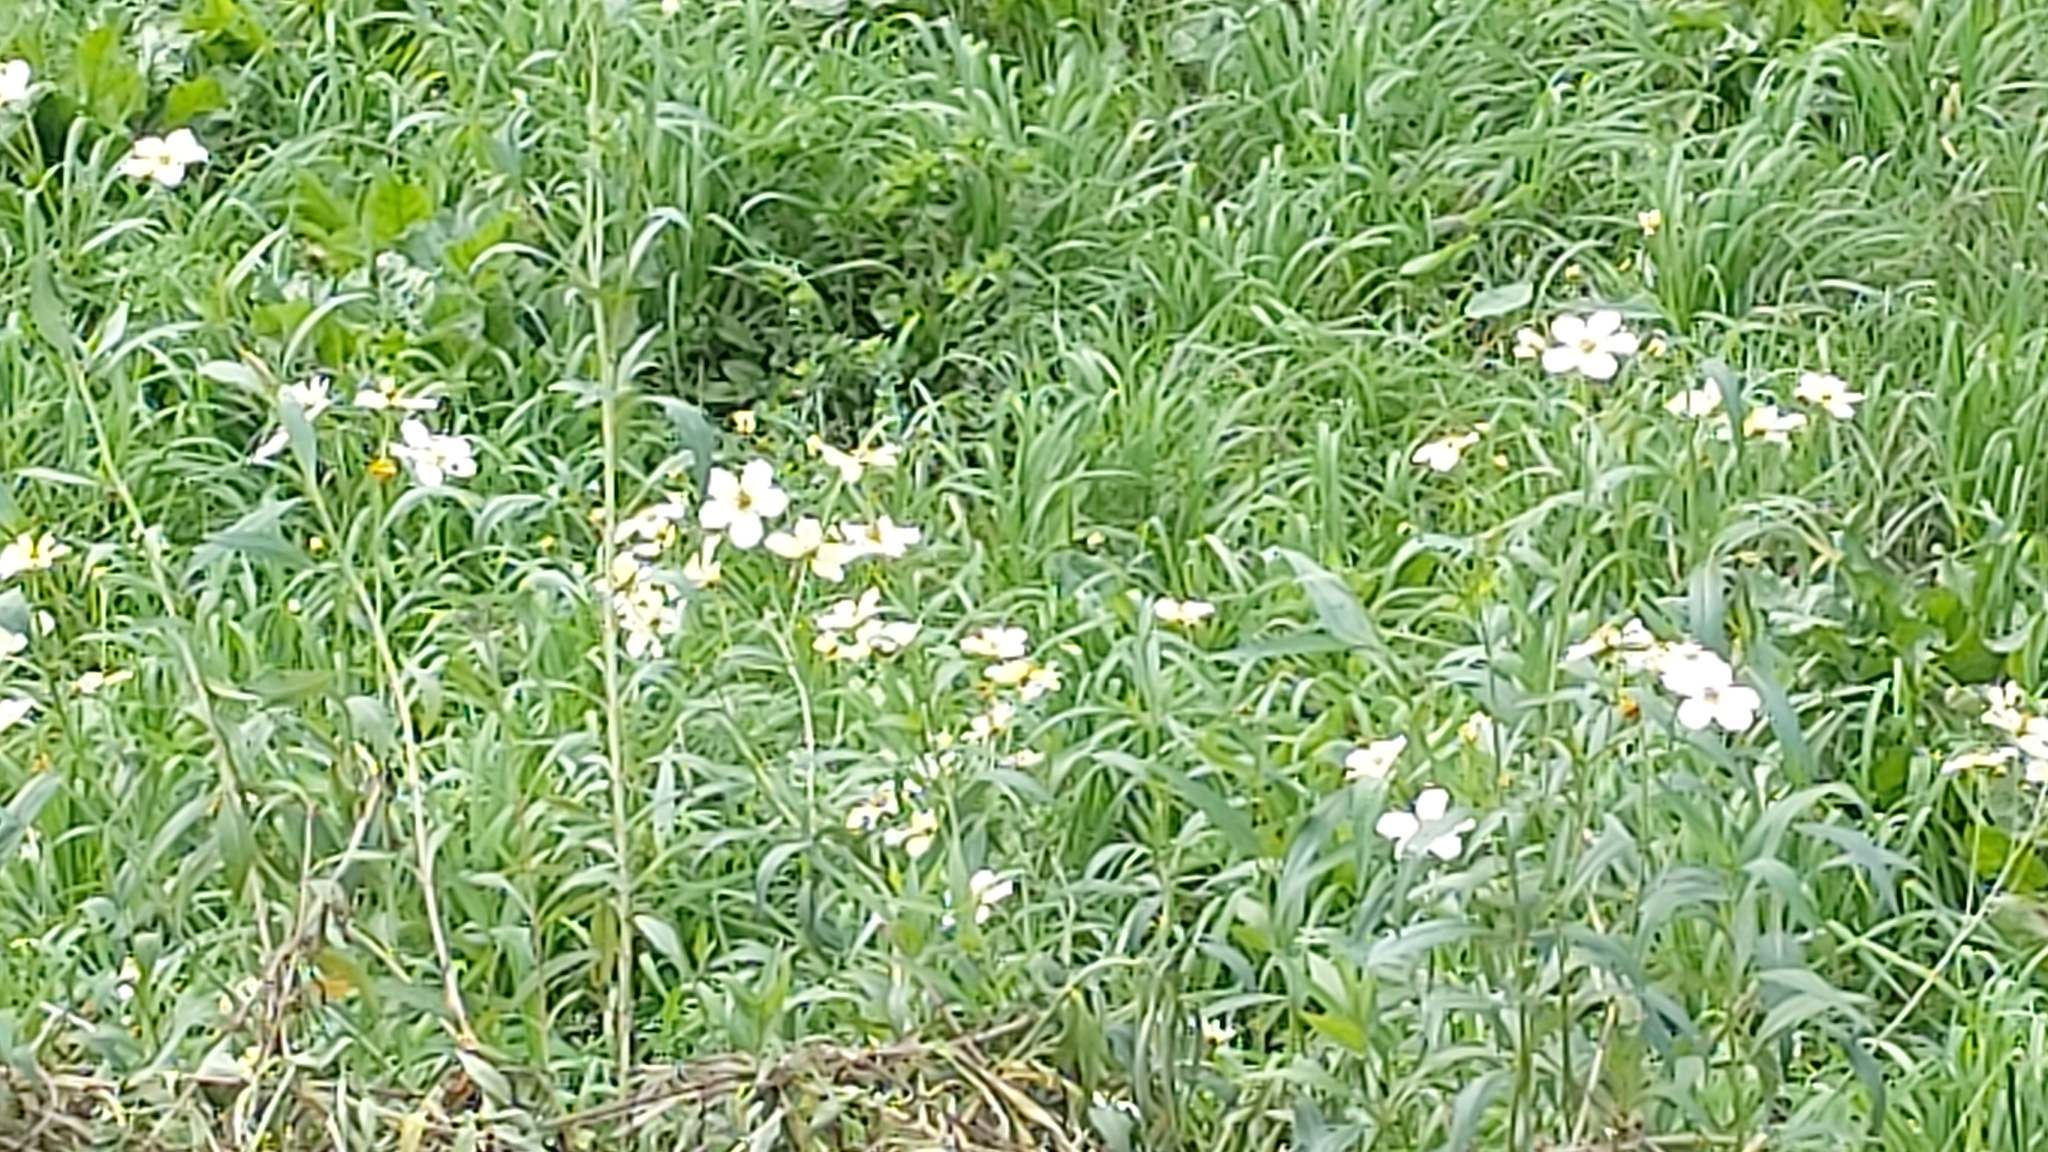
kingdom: Plantae
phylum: Tracheophyta
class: Magnoliopsida
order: Asterales
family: Asteraceae
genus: Bidens
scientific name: Bidens aurea
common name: Arizona beggar-ticks
